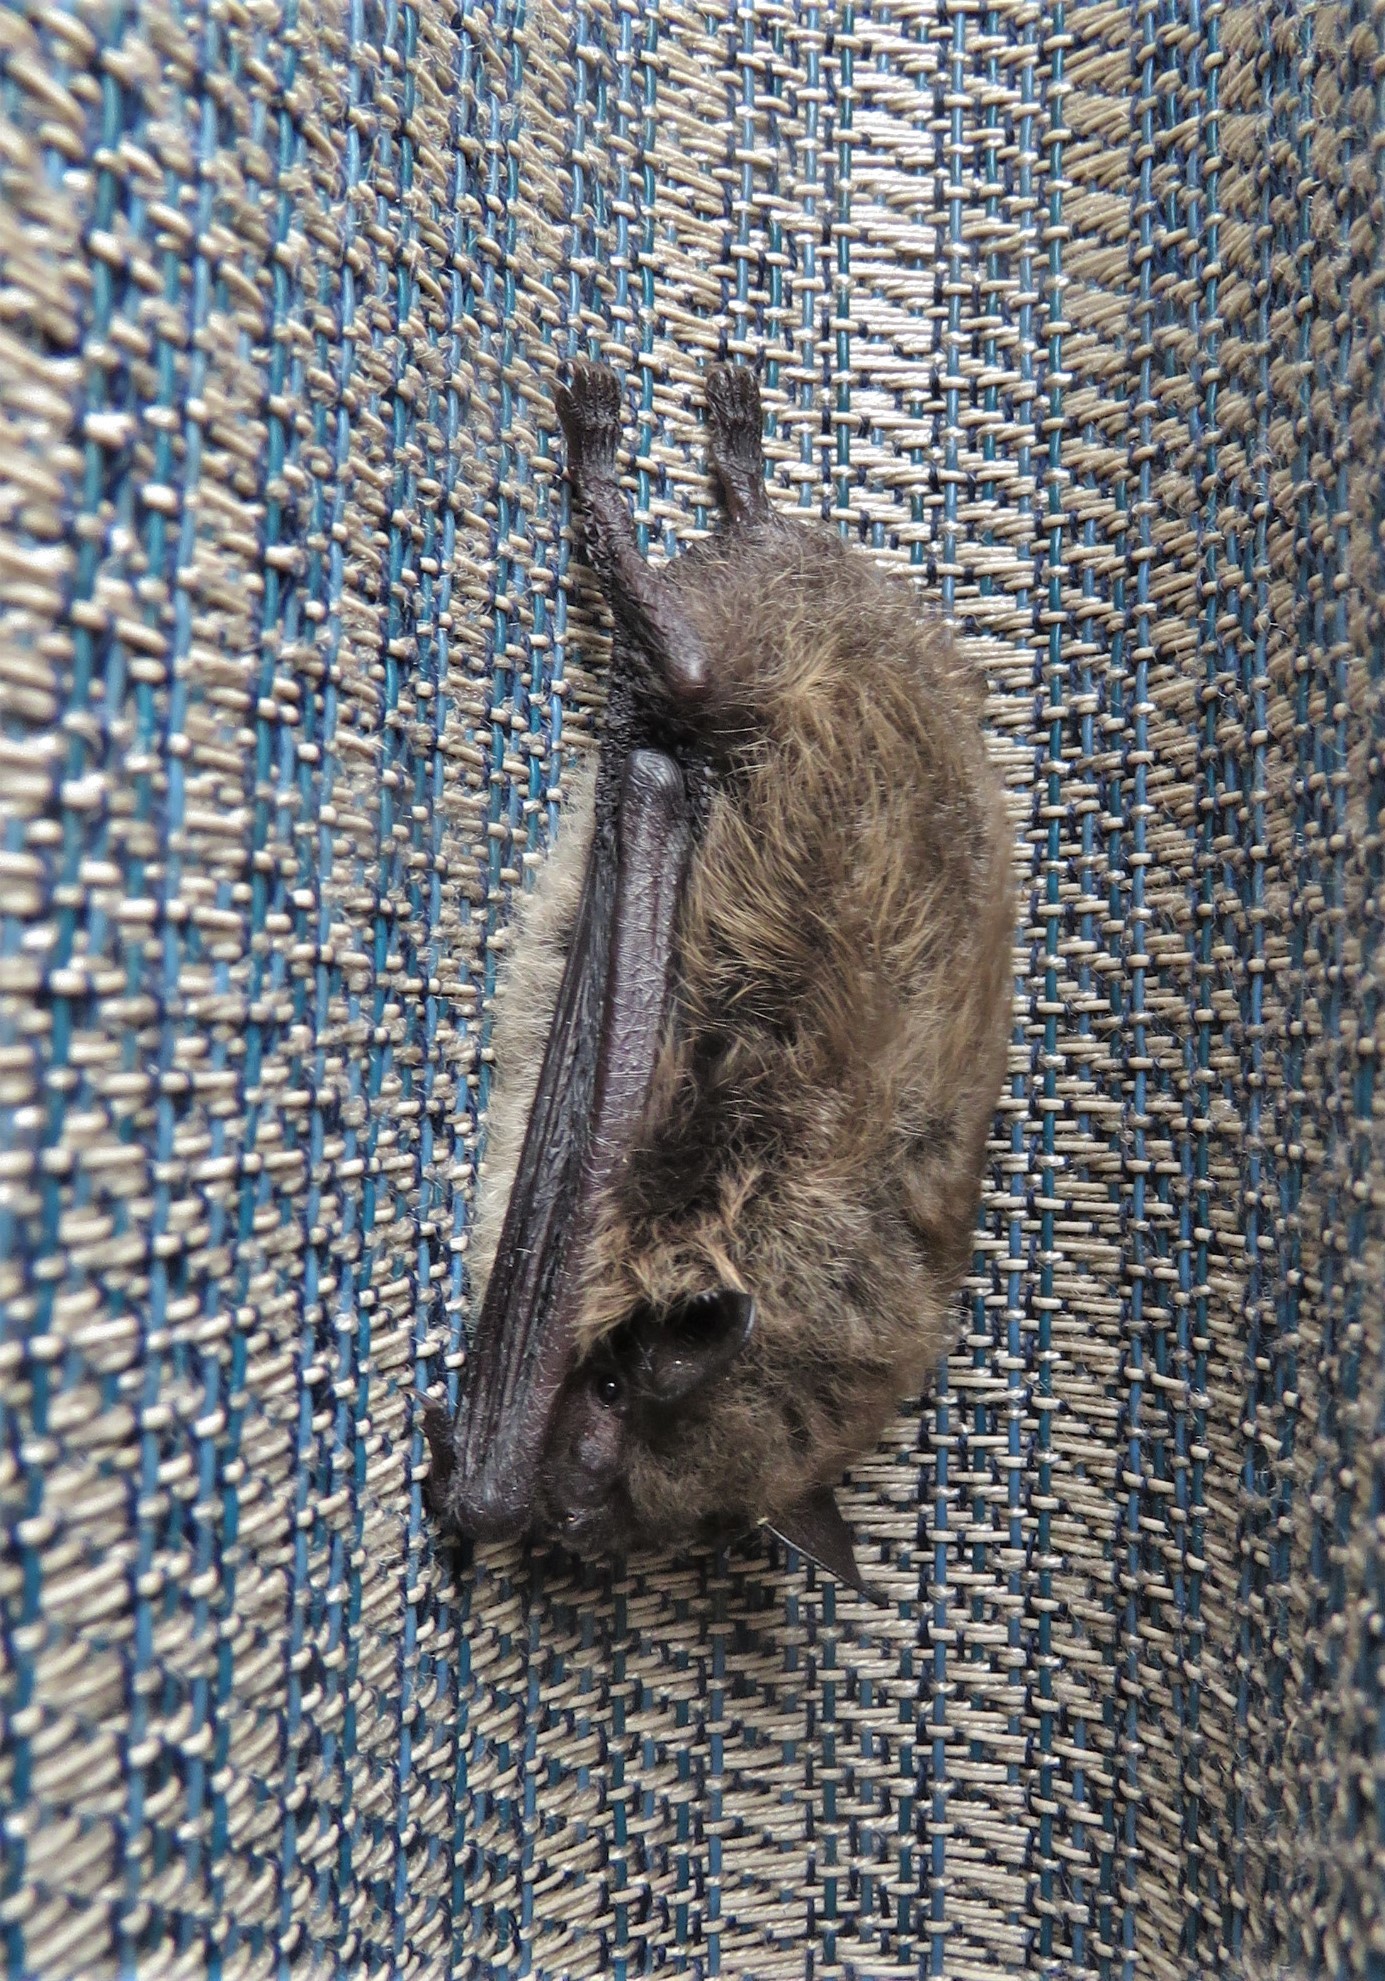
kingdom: Animalia
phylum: Chordata
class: Mammalia
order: Chiroptera
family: Vespertilionidae
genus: Myotis
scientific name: Myotis lucifugus
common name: Little brown bat
